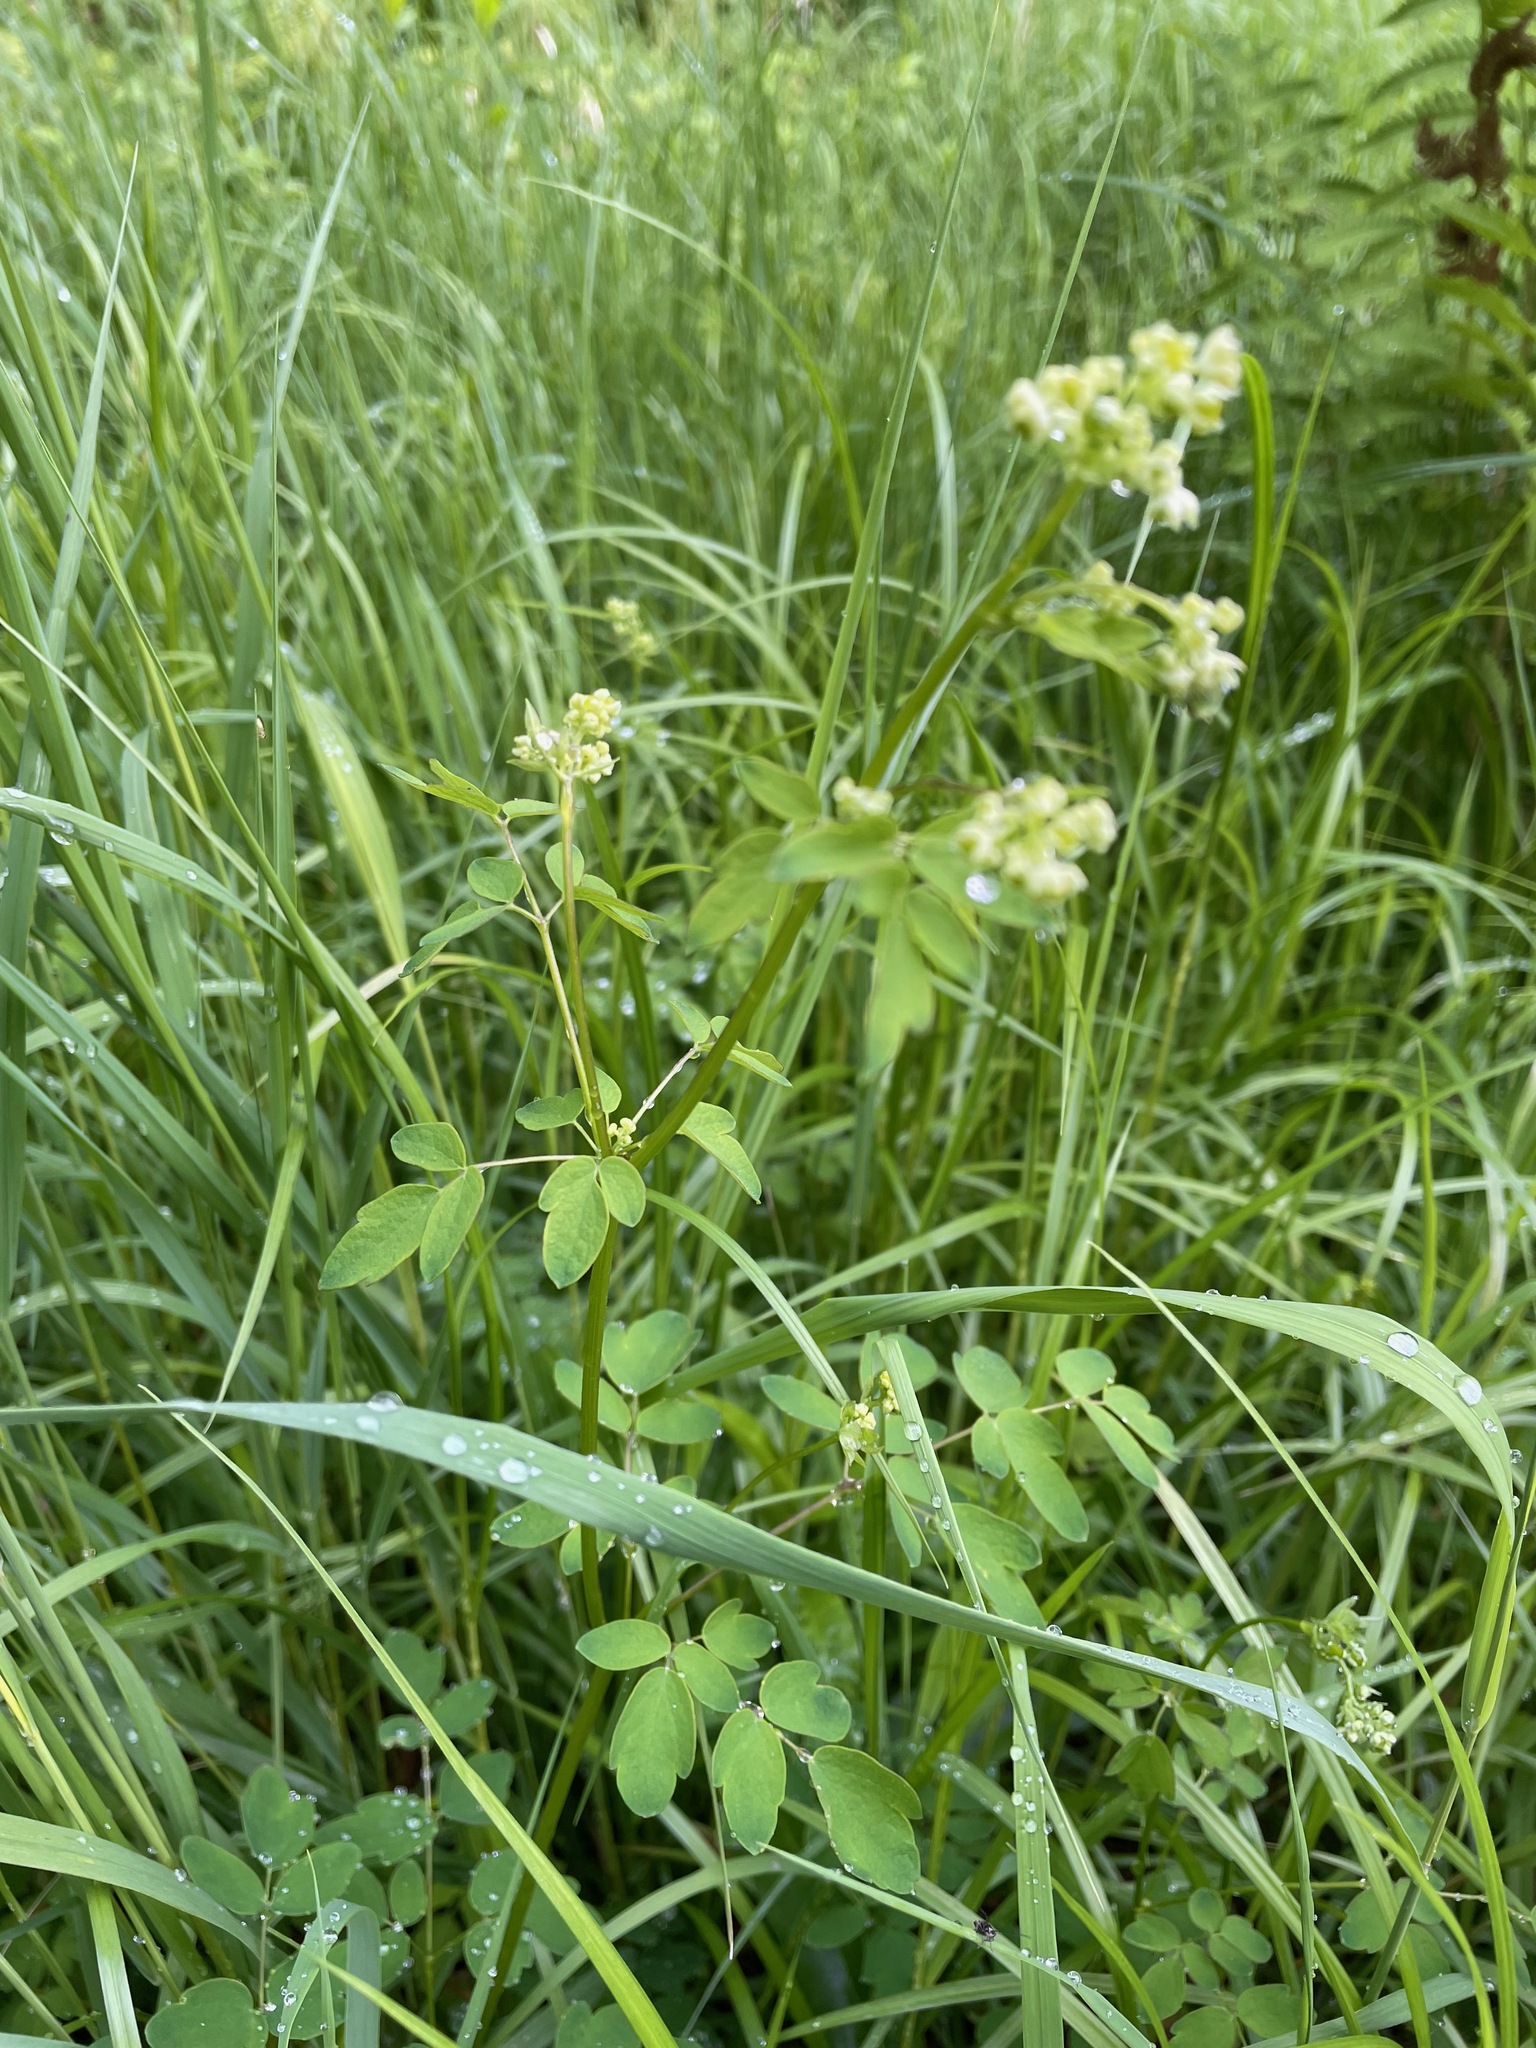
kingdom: Plantae
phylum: Tracheophyta
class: Magnoliopsida
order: Ranunculales
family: Ranunculaceae
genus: Thalictrum
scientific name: Thalictrum pubescens
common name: King-of-the-meadow
